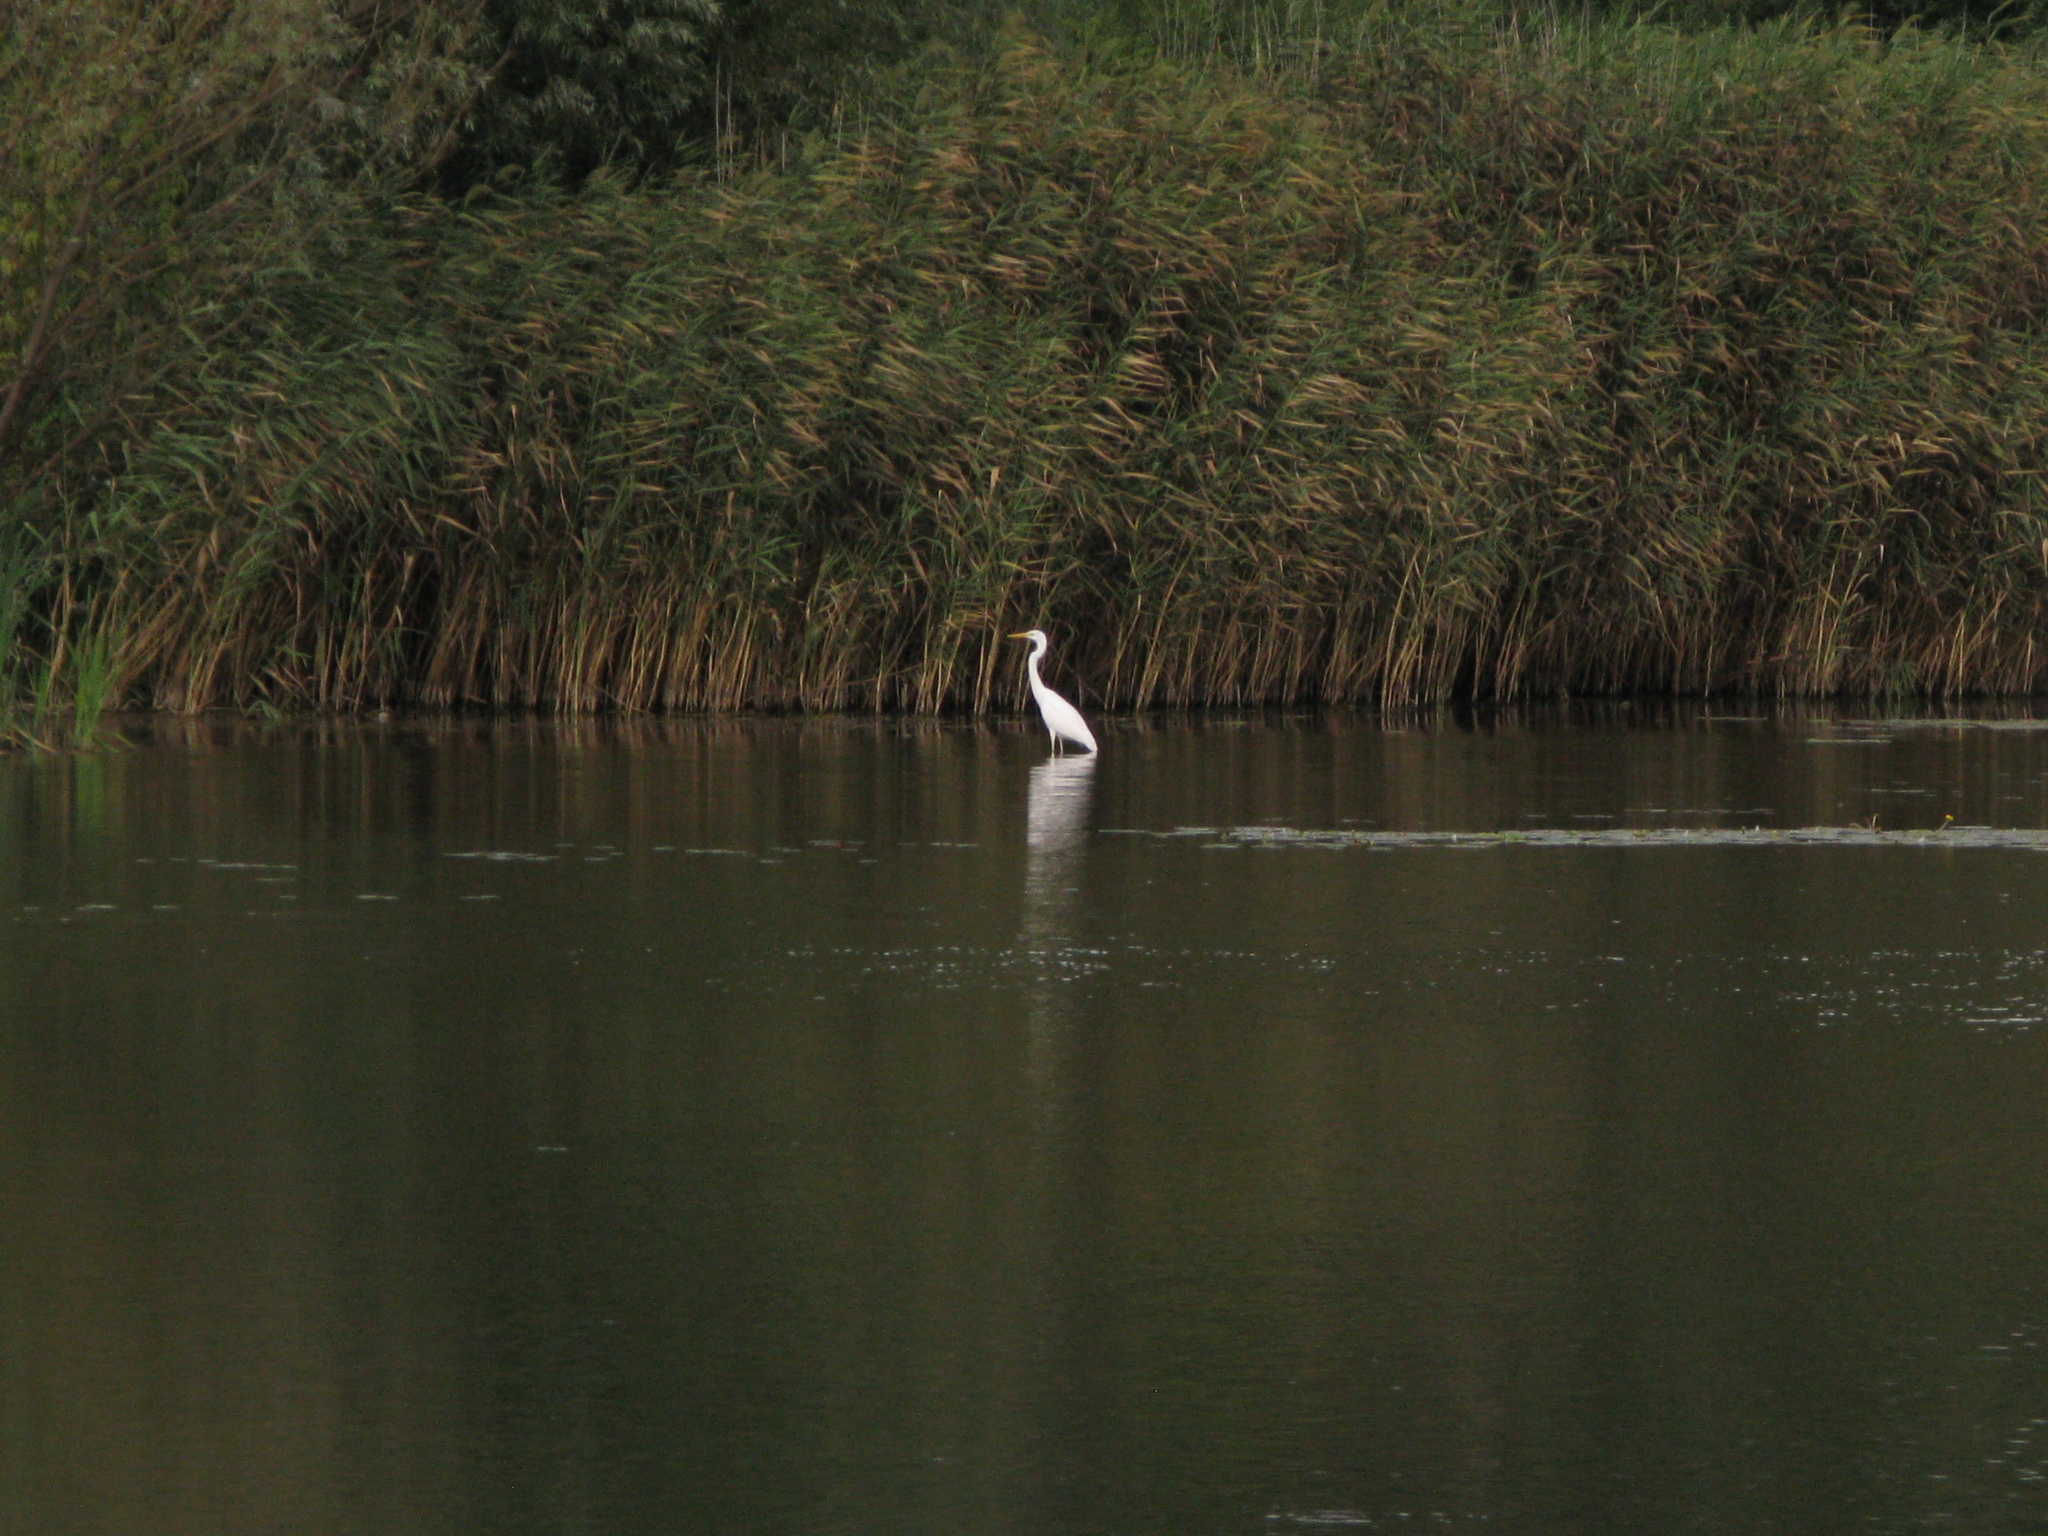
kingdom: Animalia
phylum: Chordata
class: Aves
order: Pelecaniformes
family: Ardeidae
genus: Ardea
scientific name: Ardea alba
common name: Great egret
